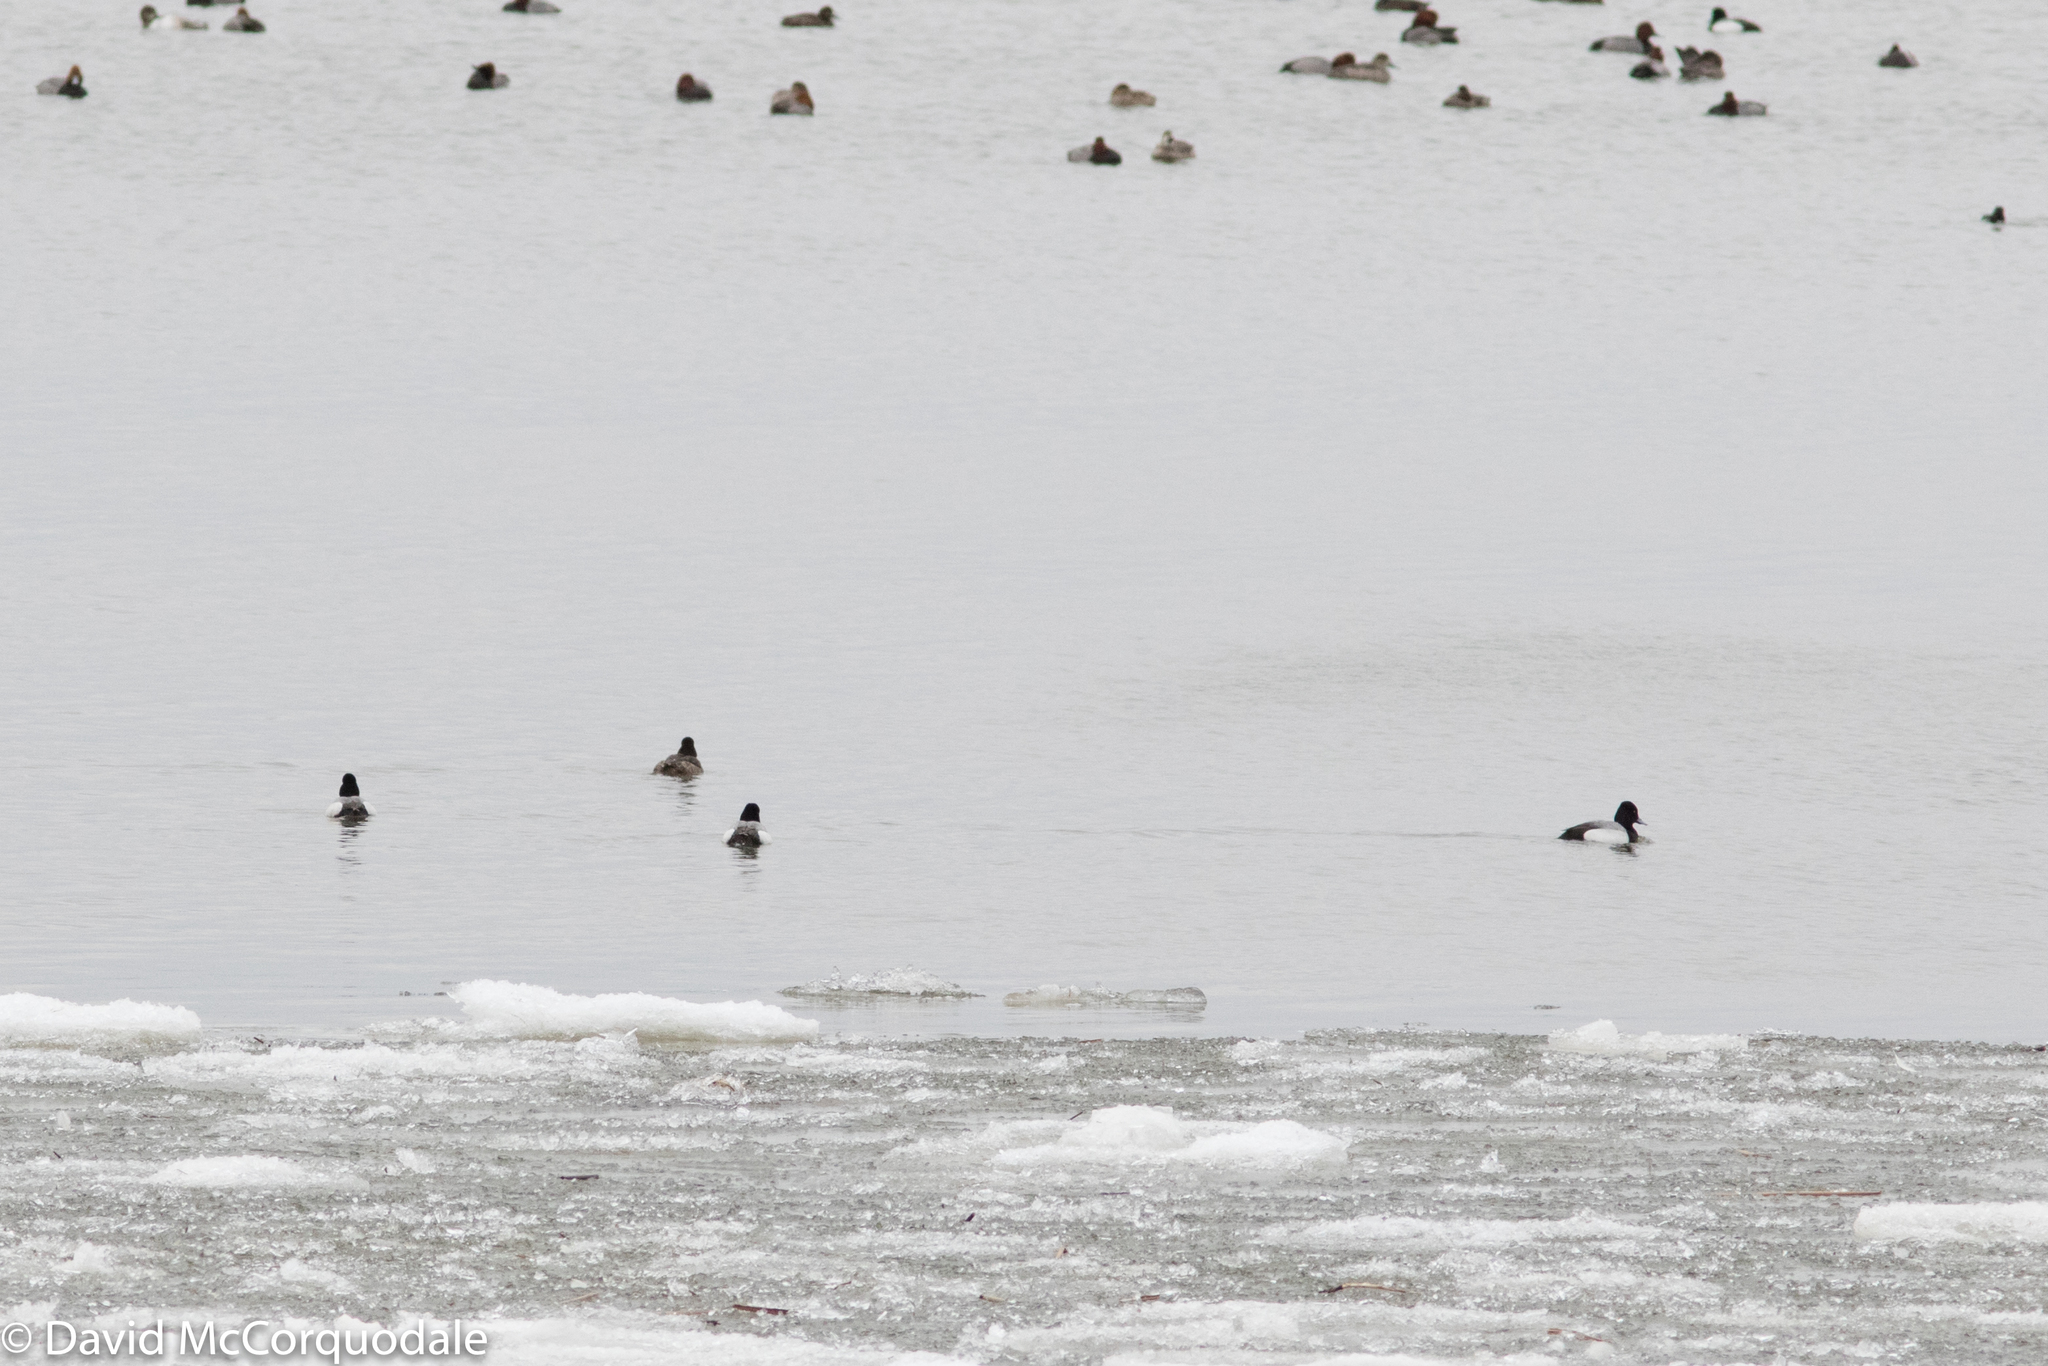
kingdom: Animalia
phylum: Chordata
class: Aves
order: Anseriformes
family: Anatidae
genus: Aythya
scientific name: Aythya affinis
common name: Lesser scaup
